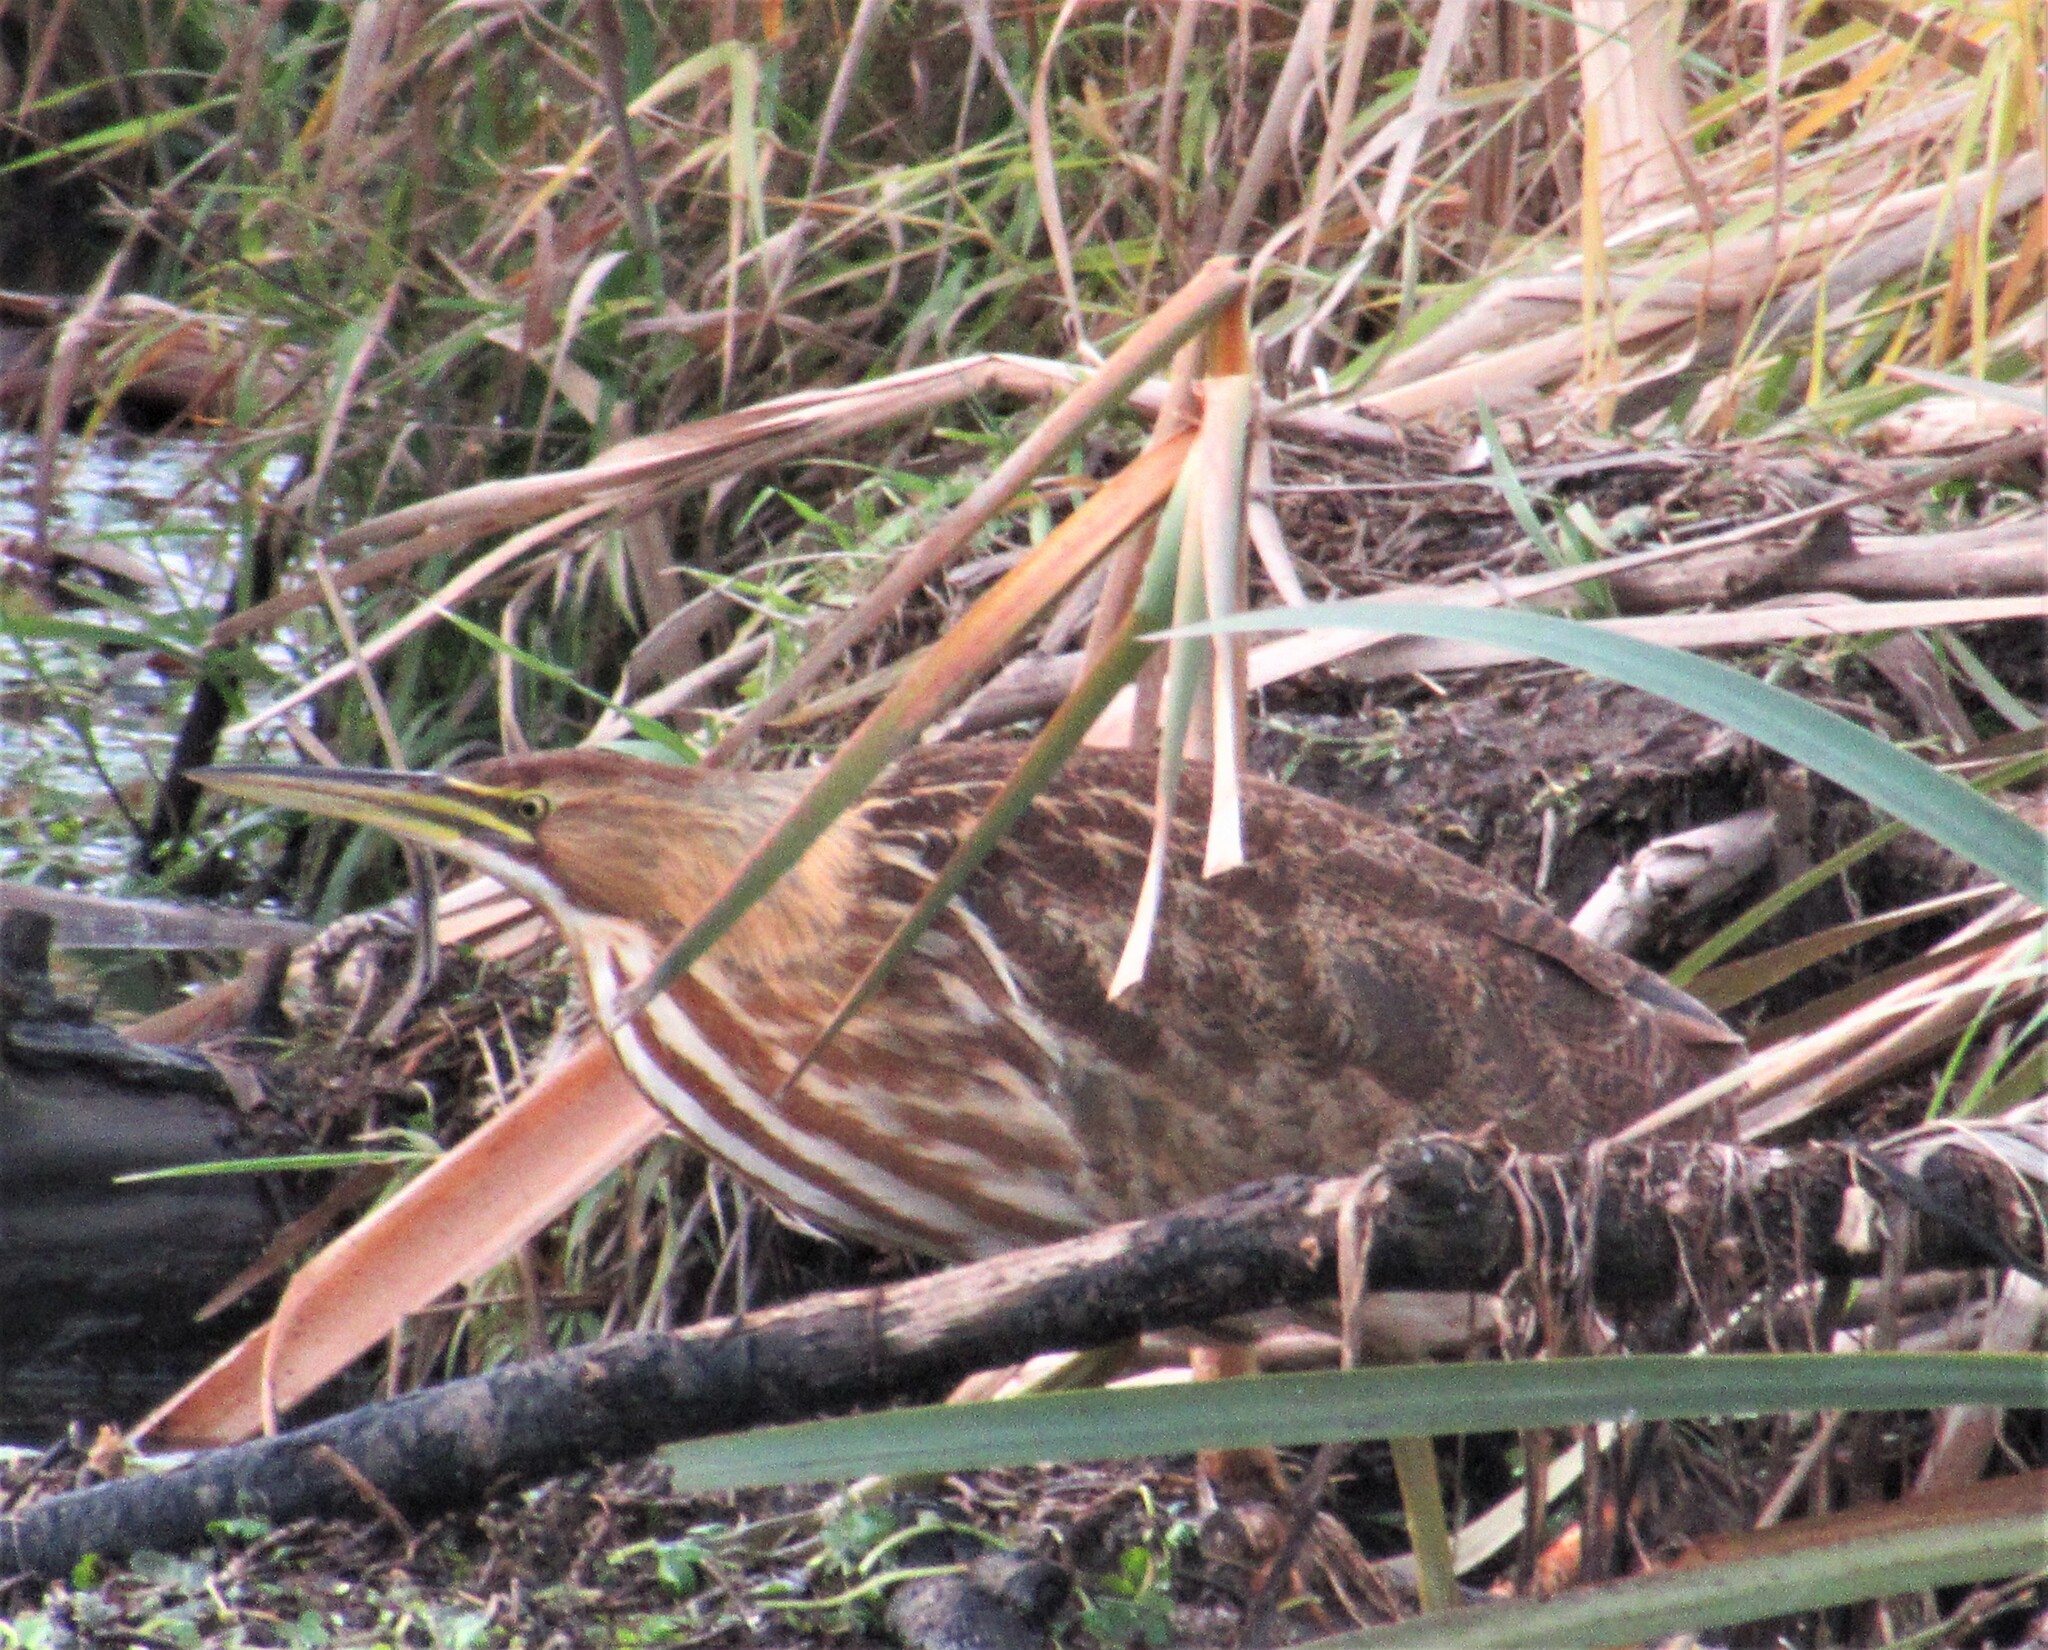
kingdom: Animalia
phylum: Chordata
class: Aves
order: Pelecaniformes
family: Ardeidae
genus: Botaurus
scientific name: Botaurus lentiginosus
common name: American bittern
